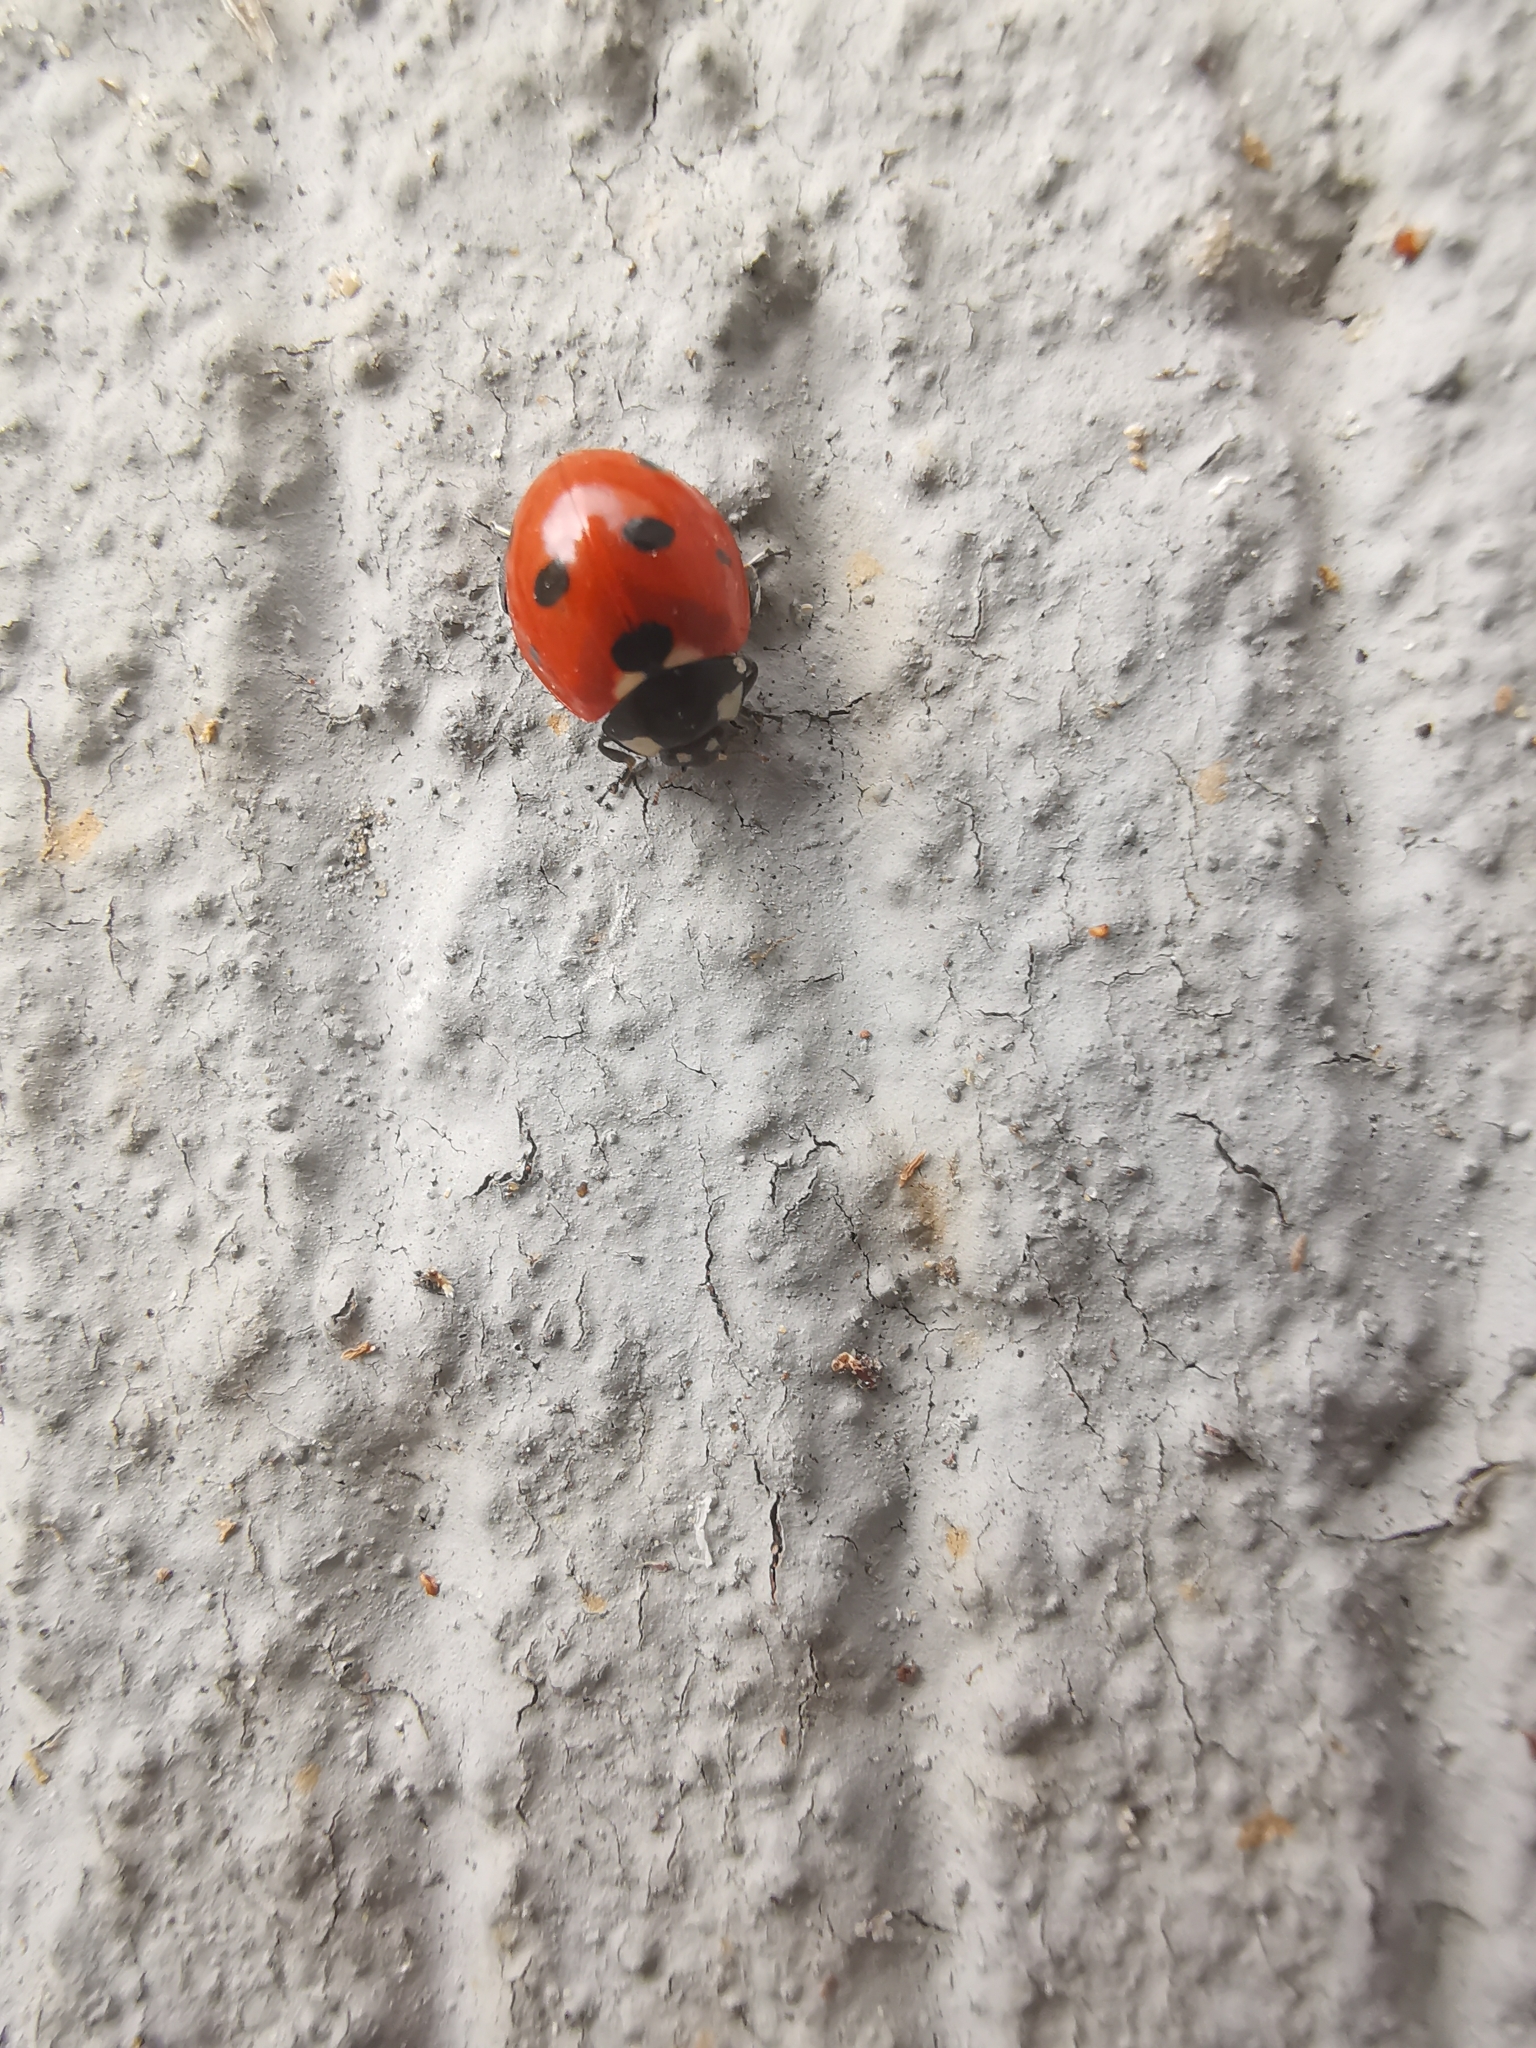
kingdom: Animalia
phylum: Arthropoda
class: Insecta
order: Coleoptera
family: Coccinellidae
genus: Coccinella
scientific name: Coccinella septempunctata
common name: Sevenspotted lady beetle
